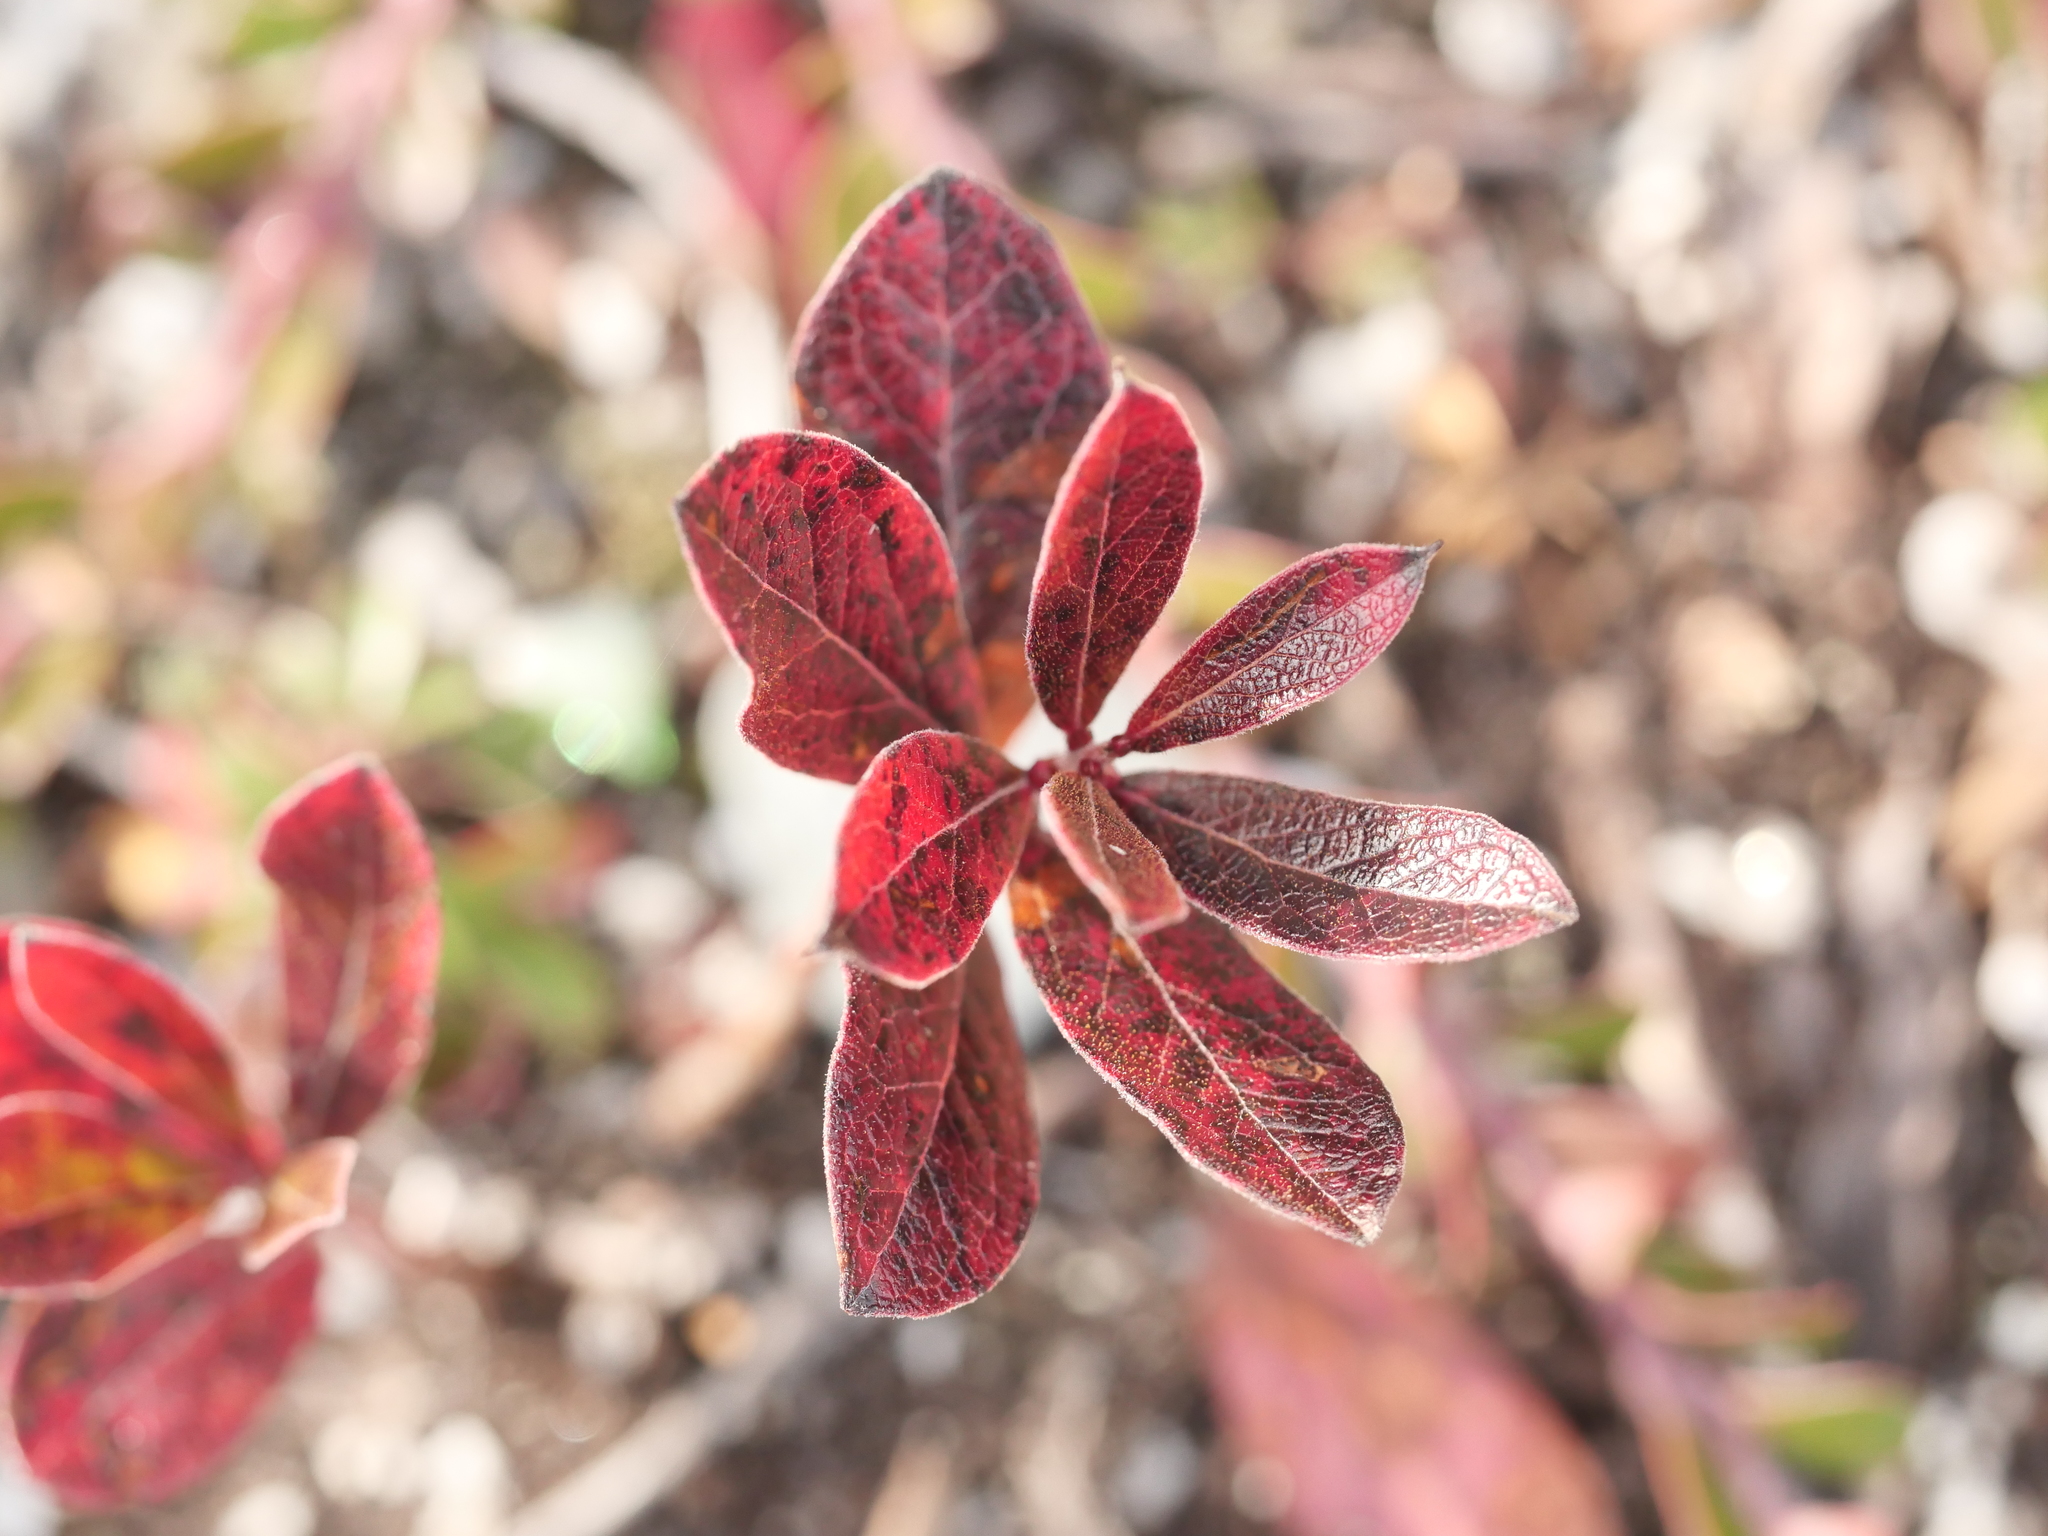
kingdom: Plantae
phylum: Tracheophyta
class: Magnoliopsida
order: Ericales
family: Ericaceae
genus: Gaylussacia
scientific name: Gaylussacia baccata
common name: Black huckleberry
